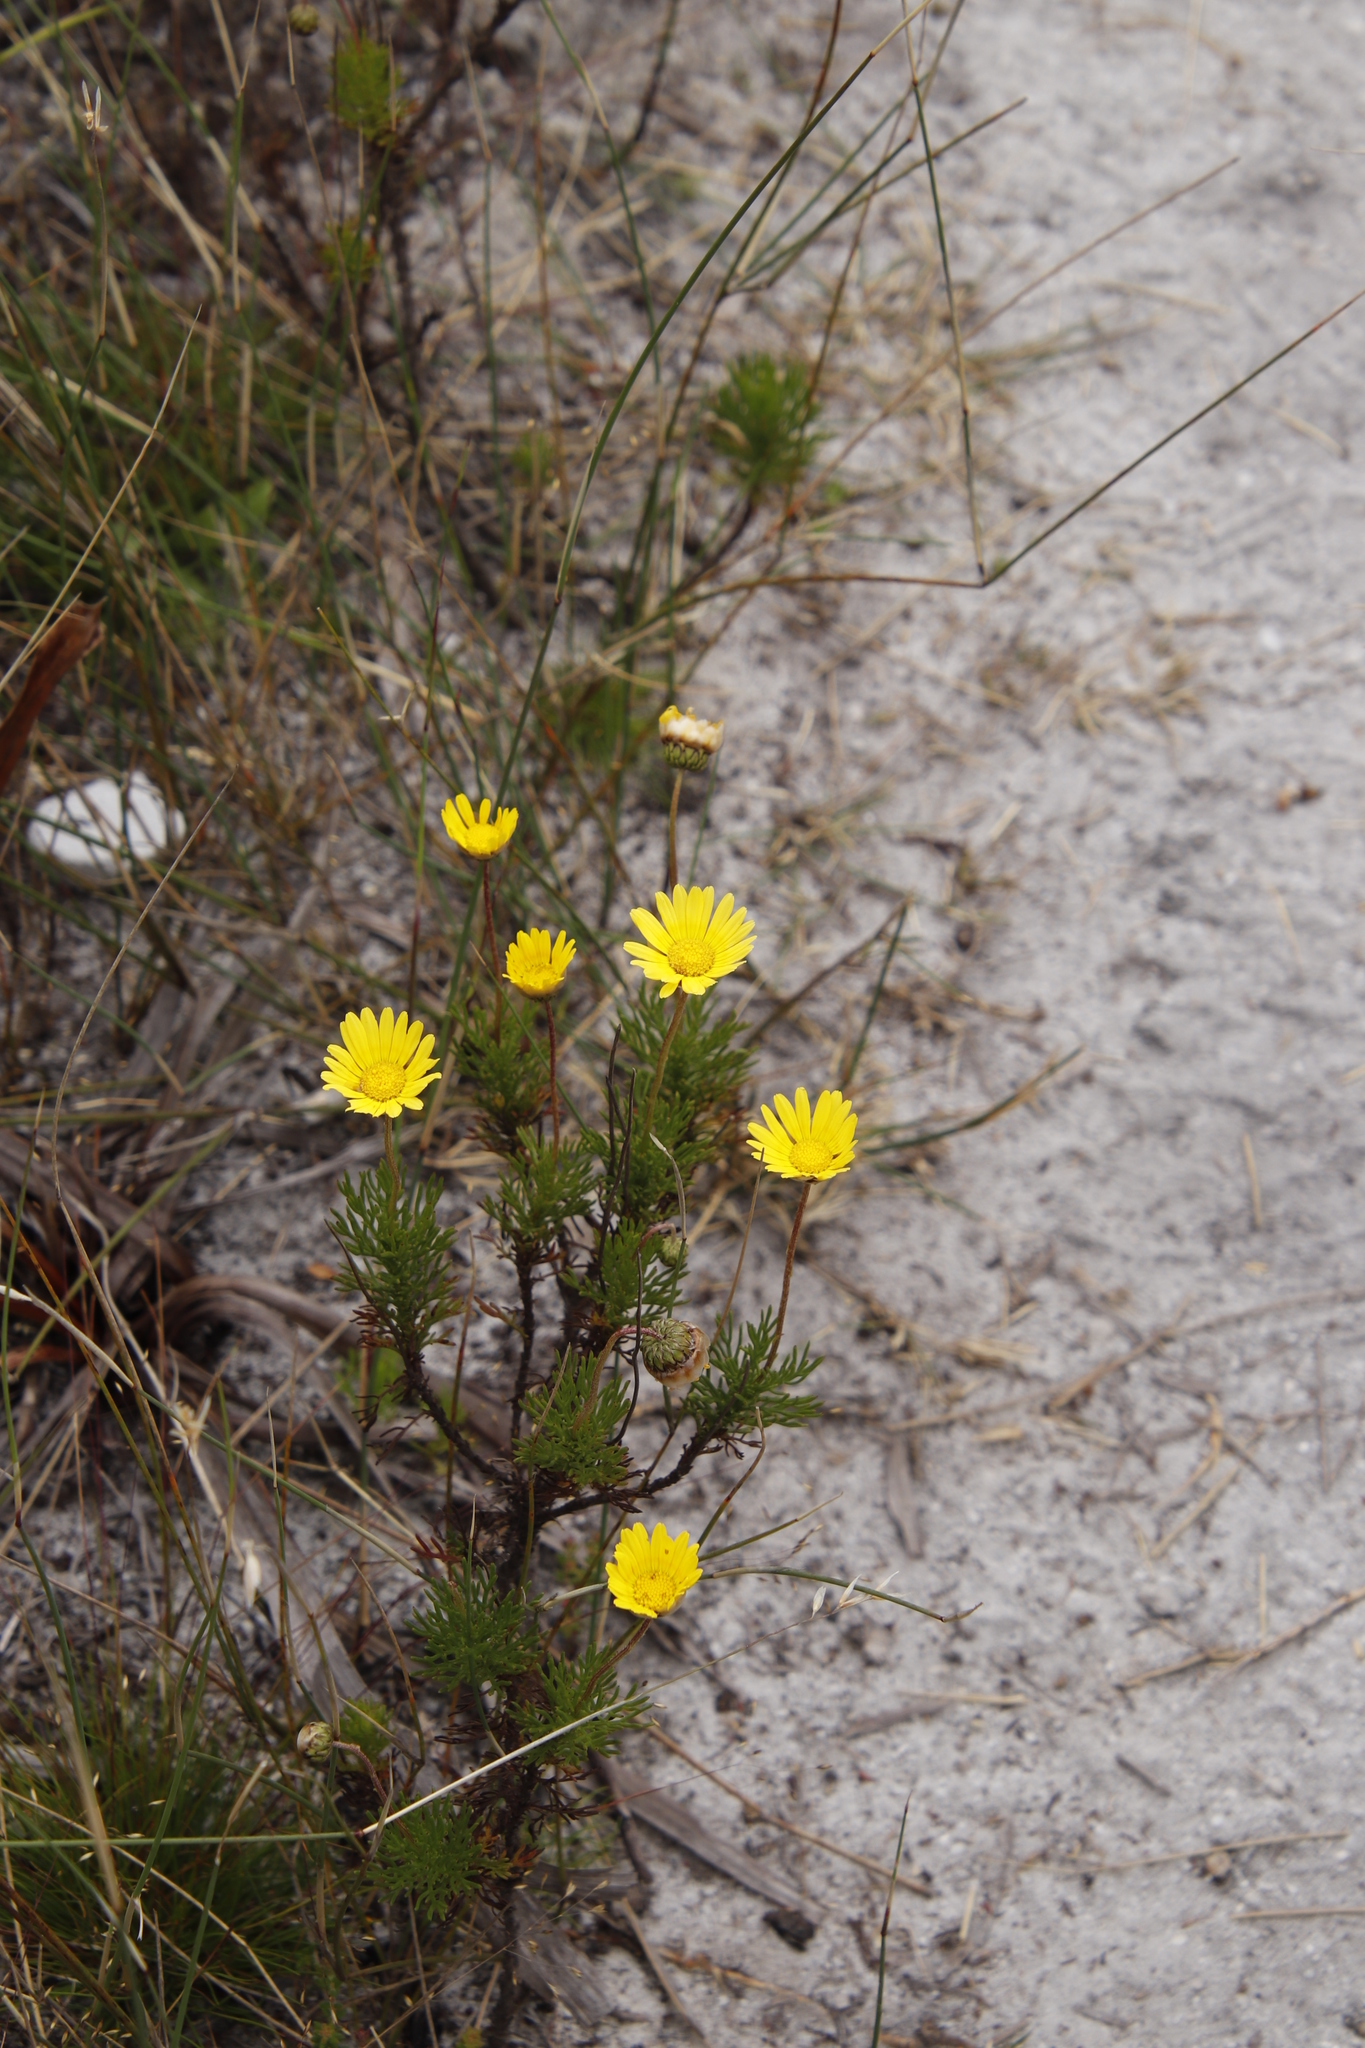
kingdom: Plantae
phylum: Tracheophyta
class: Magnoliopsida
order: Asterales
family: Asteraceae
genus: Euryops
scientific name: Euryops abrotanifolius
